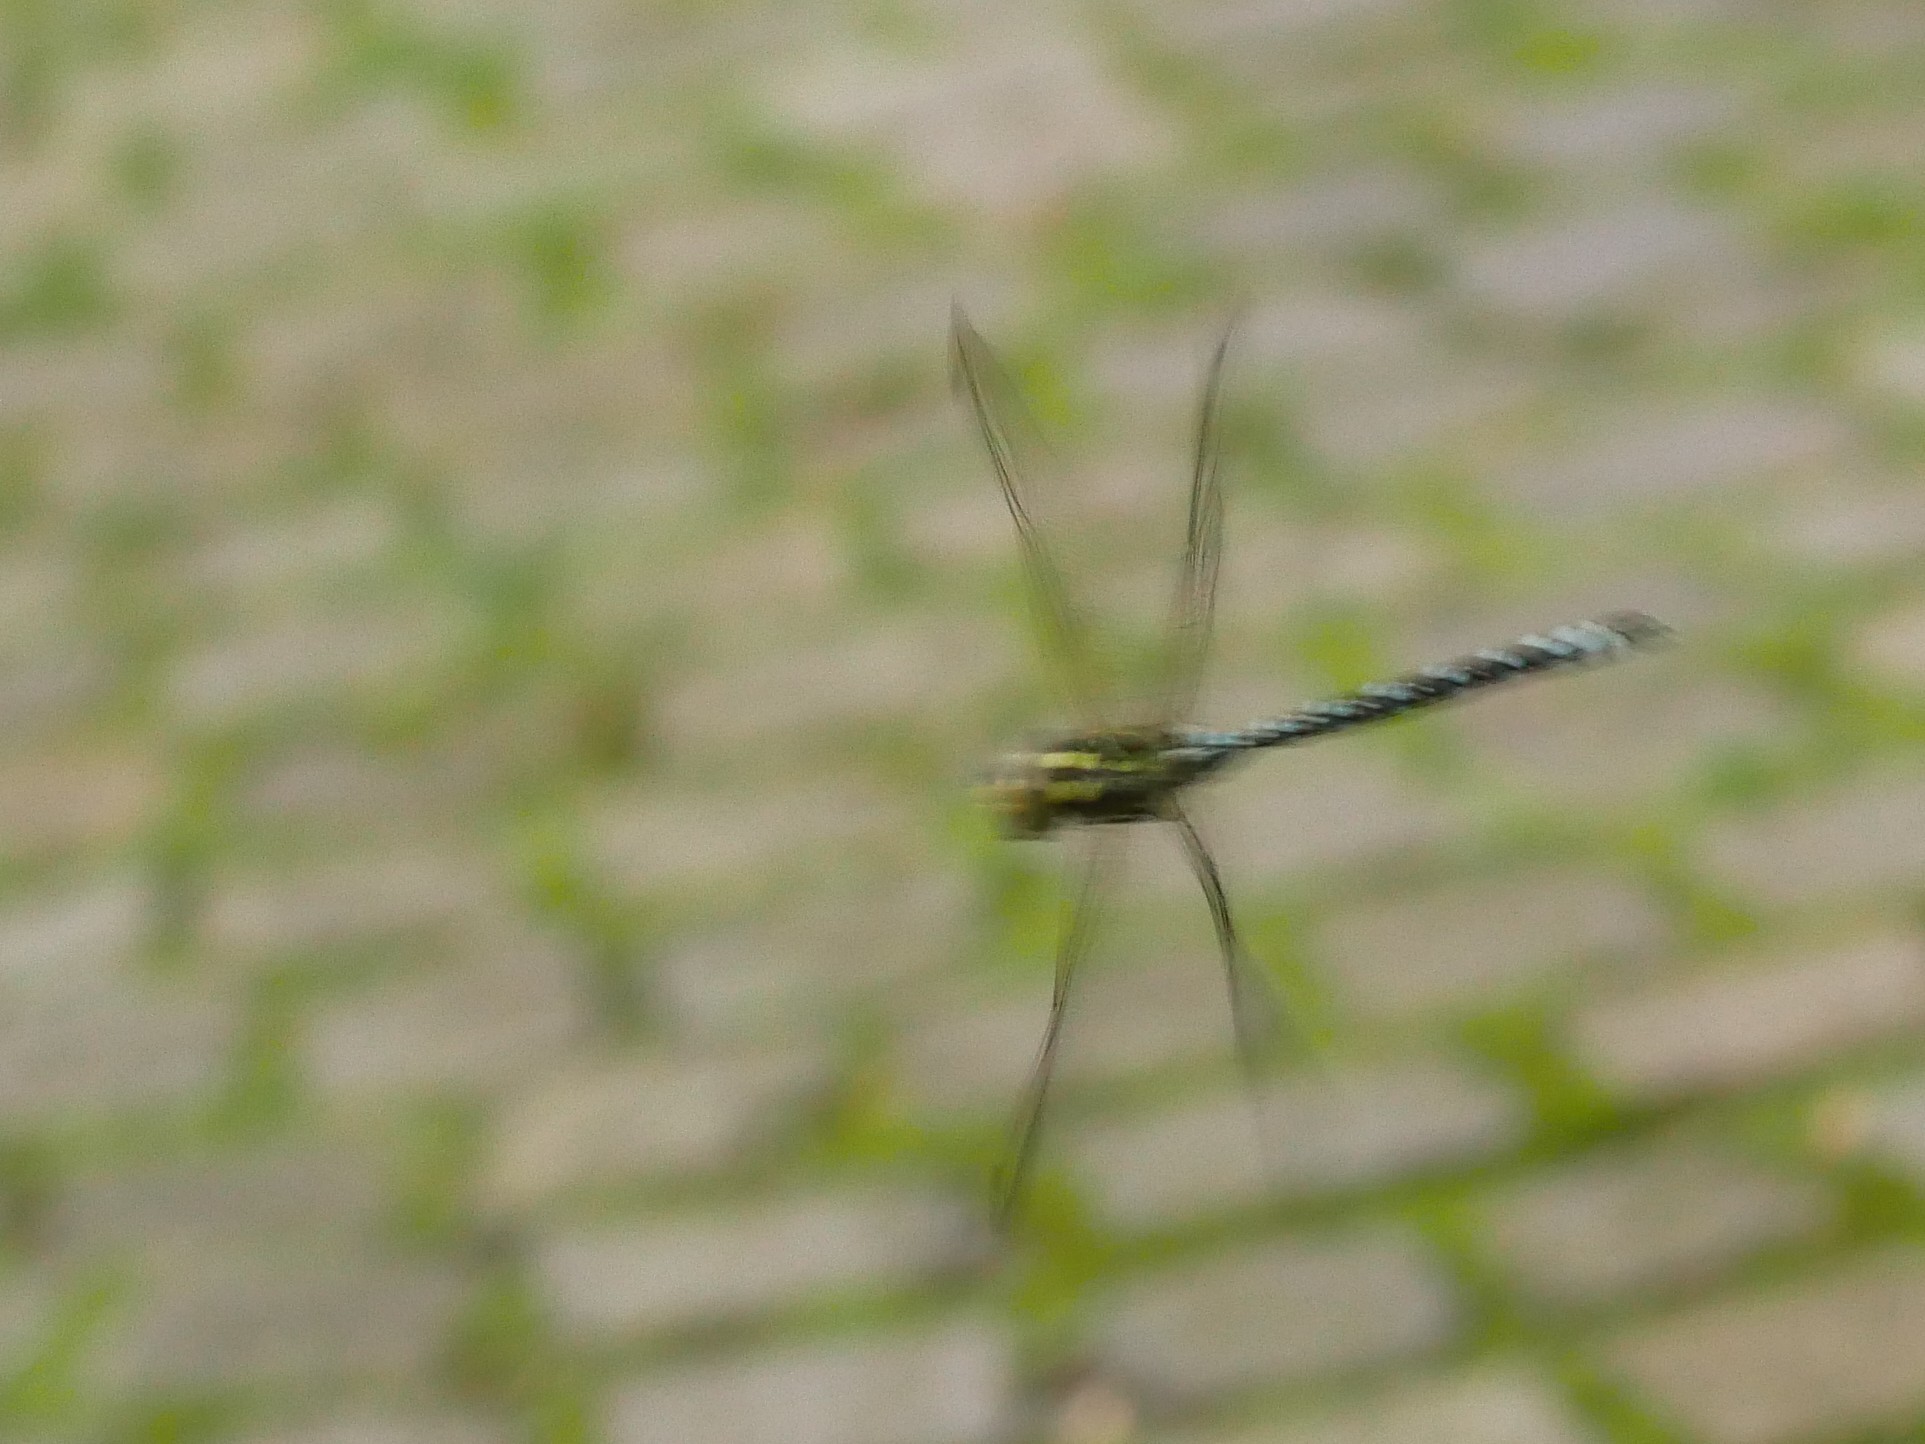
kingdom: Animalia
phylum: Arthropoda
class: Insecta
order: Odonata
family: Aeshnidae
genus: Aeshna
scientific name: Aeshna cyanea
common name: Southern hawker
